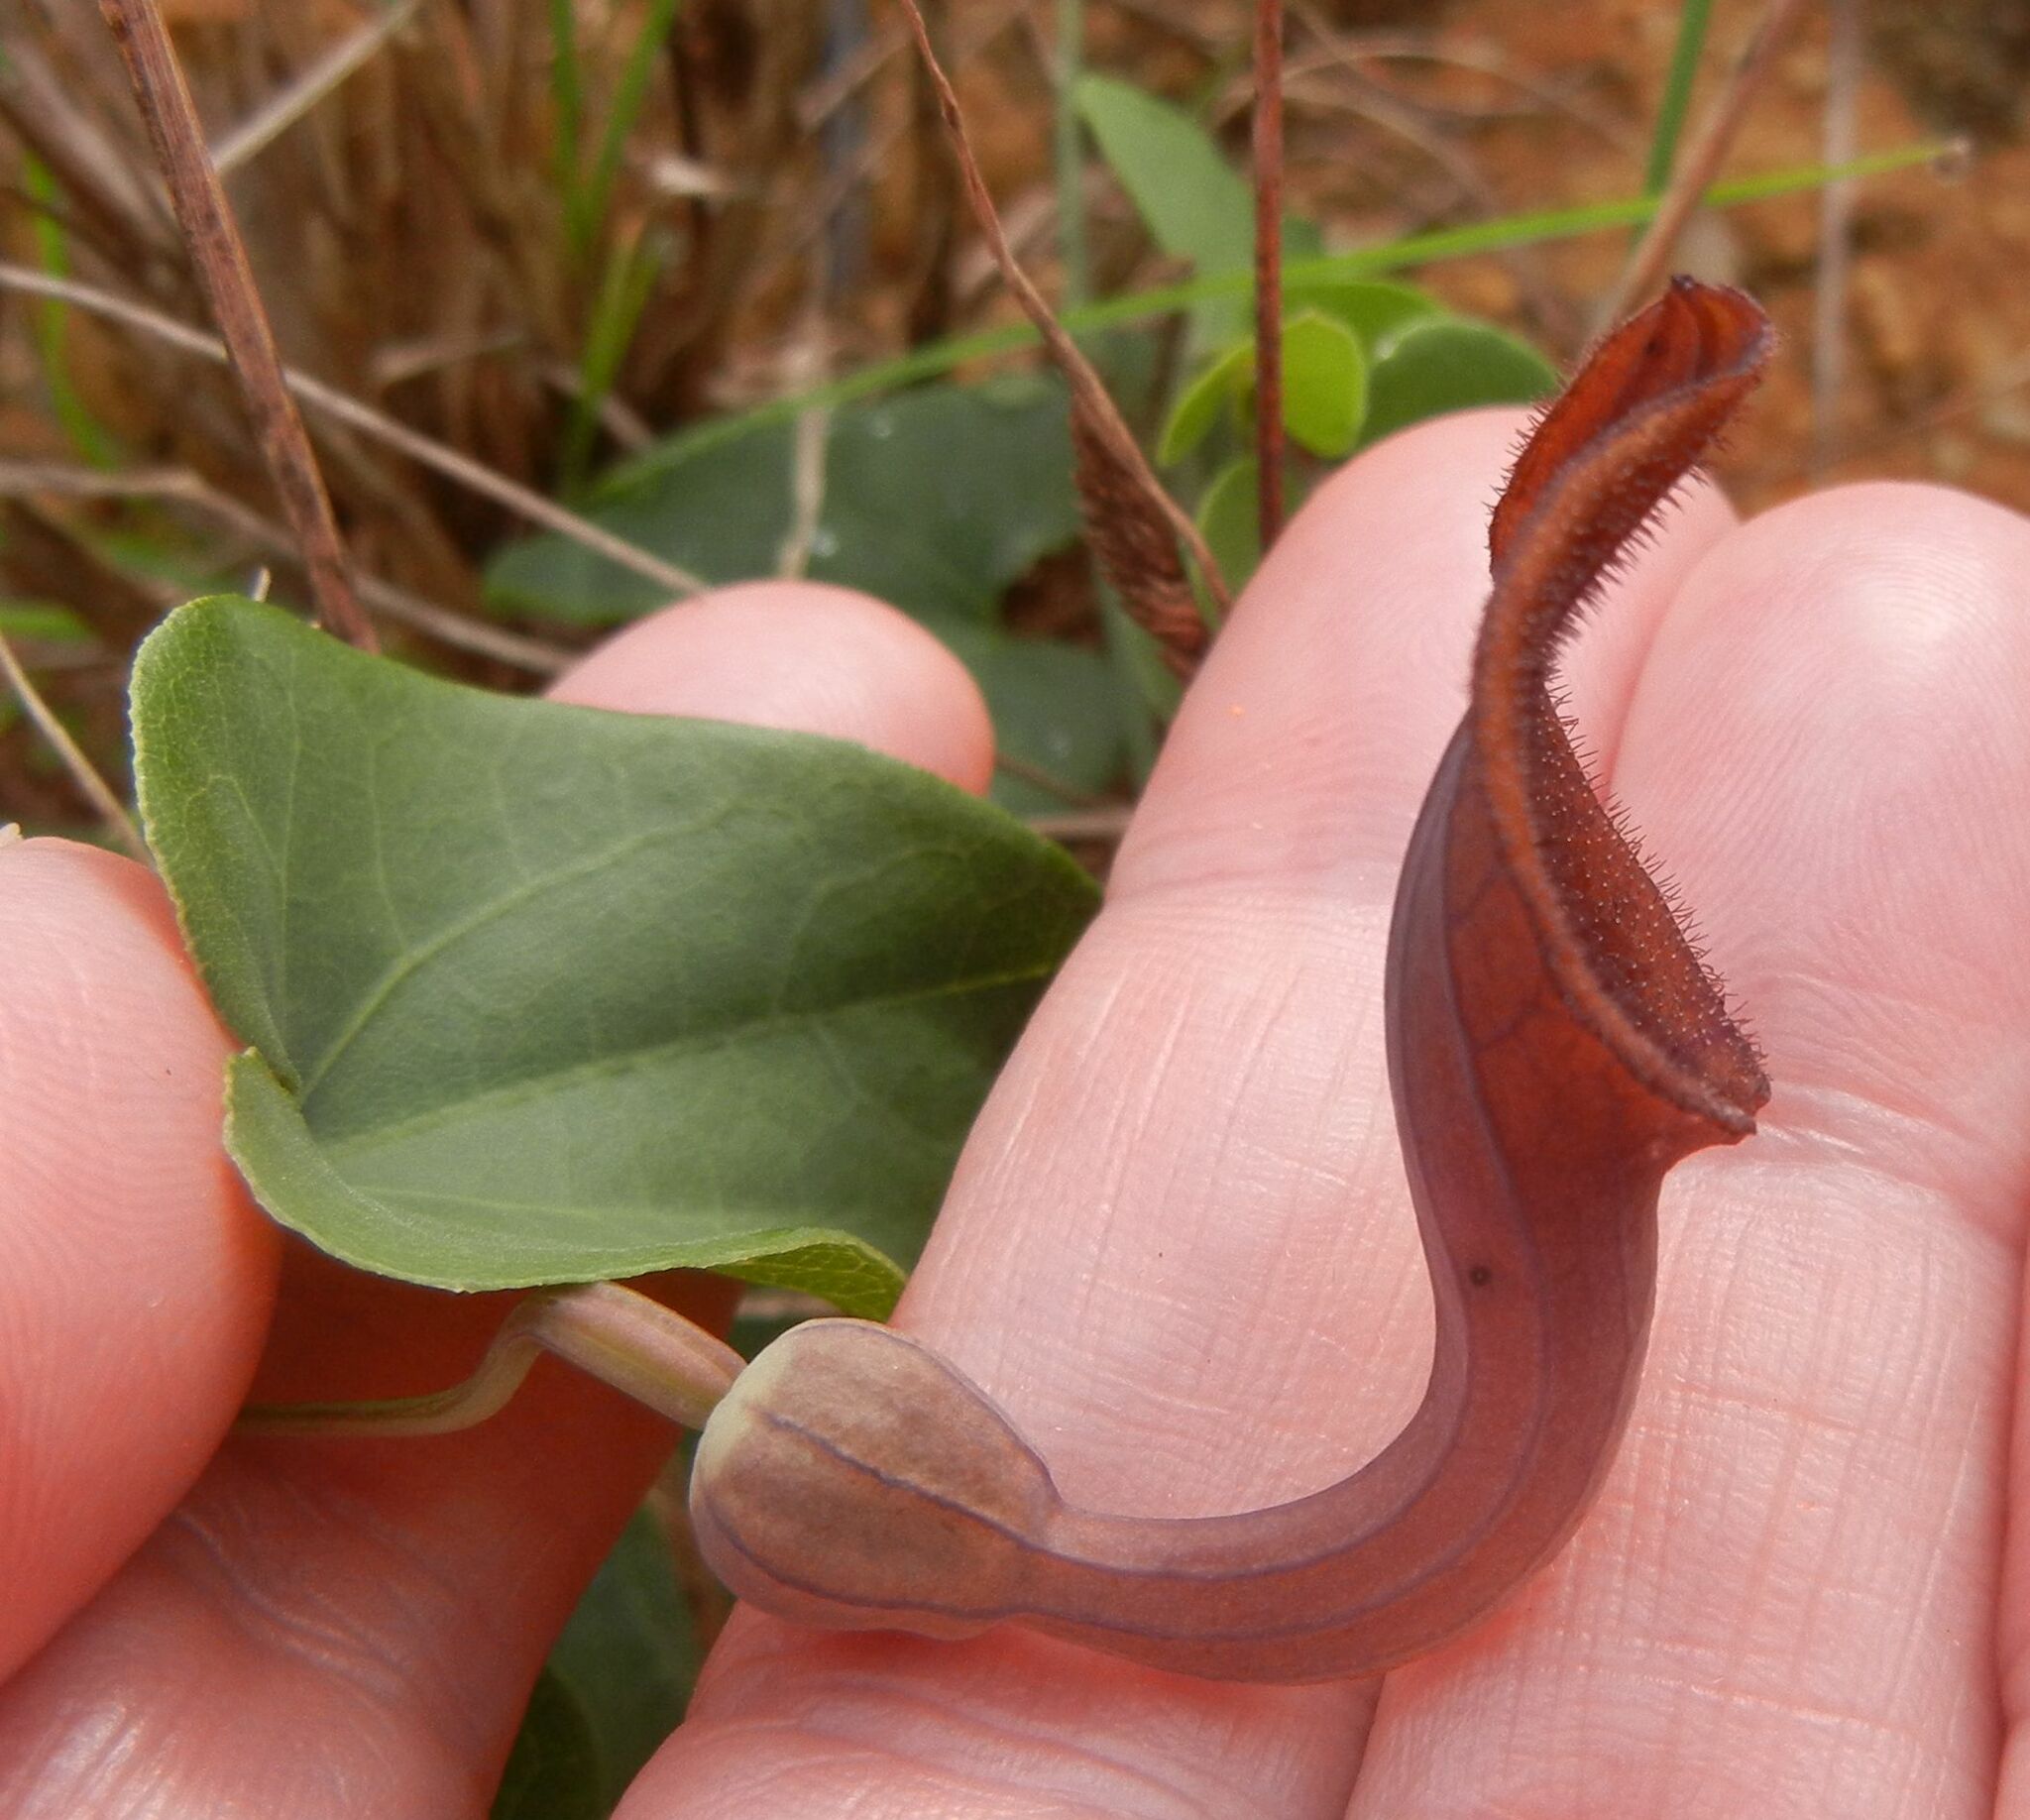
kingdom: Plantae
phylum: Tracheophyta
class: Magnoliopsida
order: Piperales
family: Aristolochiaceae
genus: Aristolochia
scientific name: Aristolochia baetica
